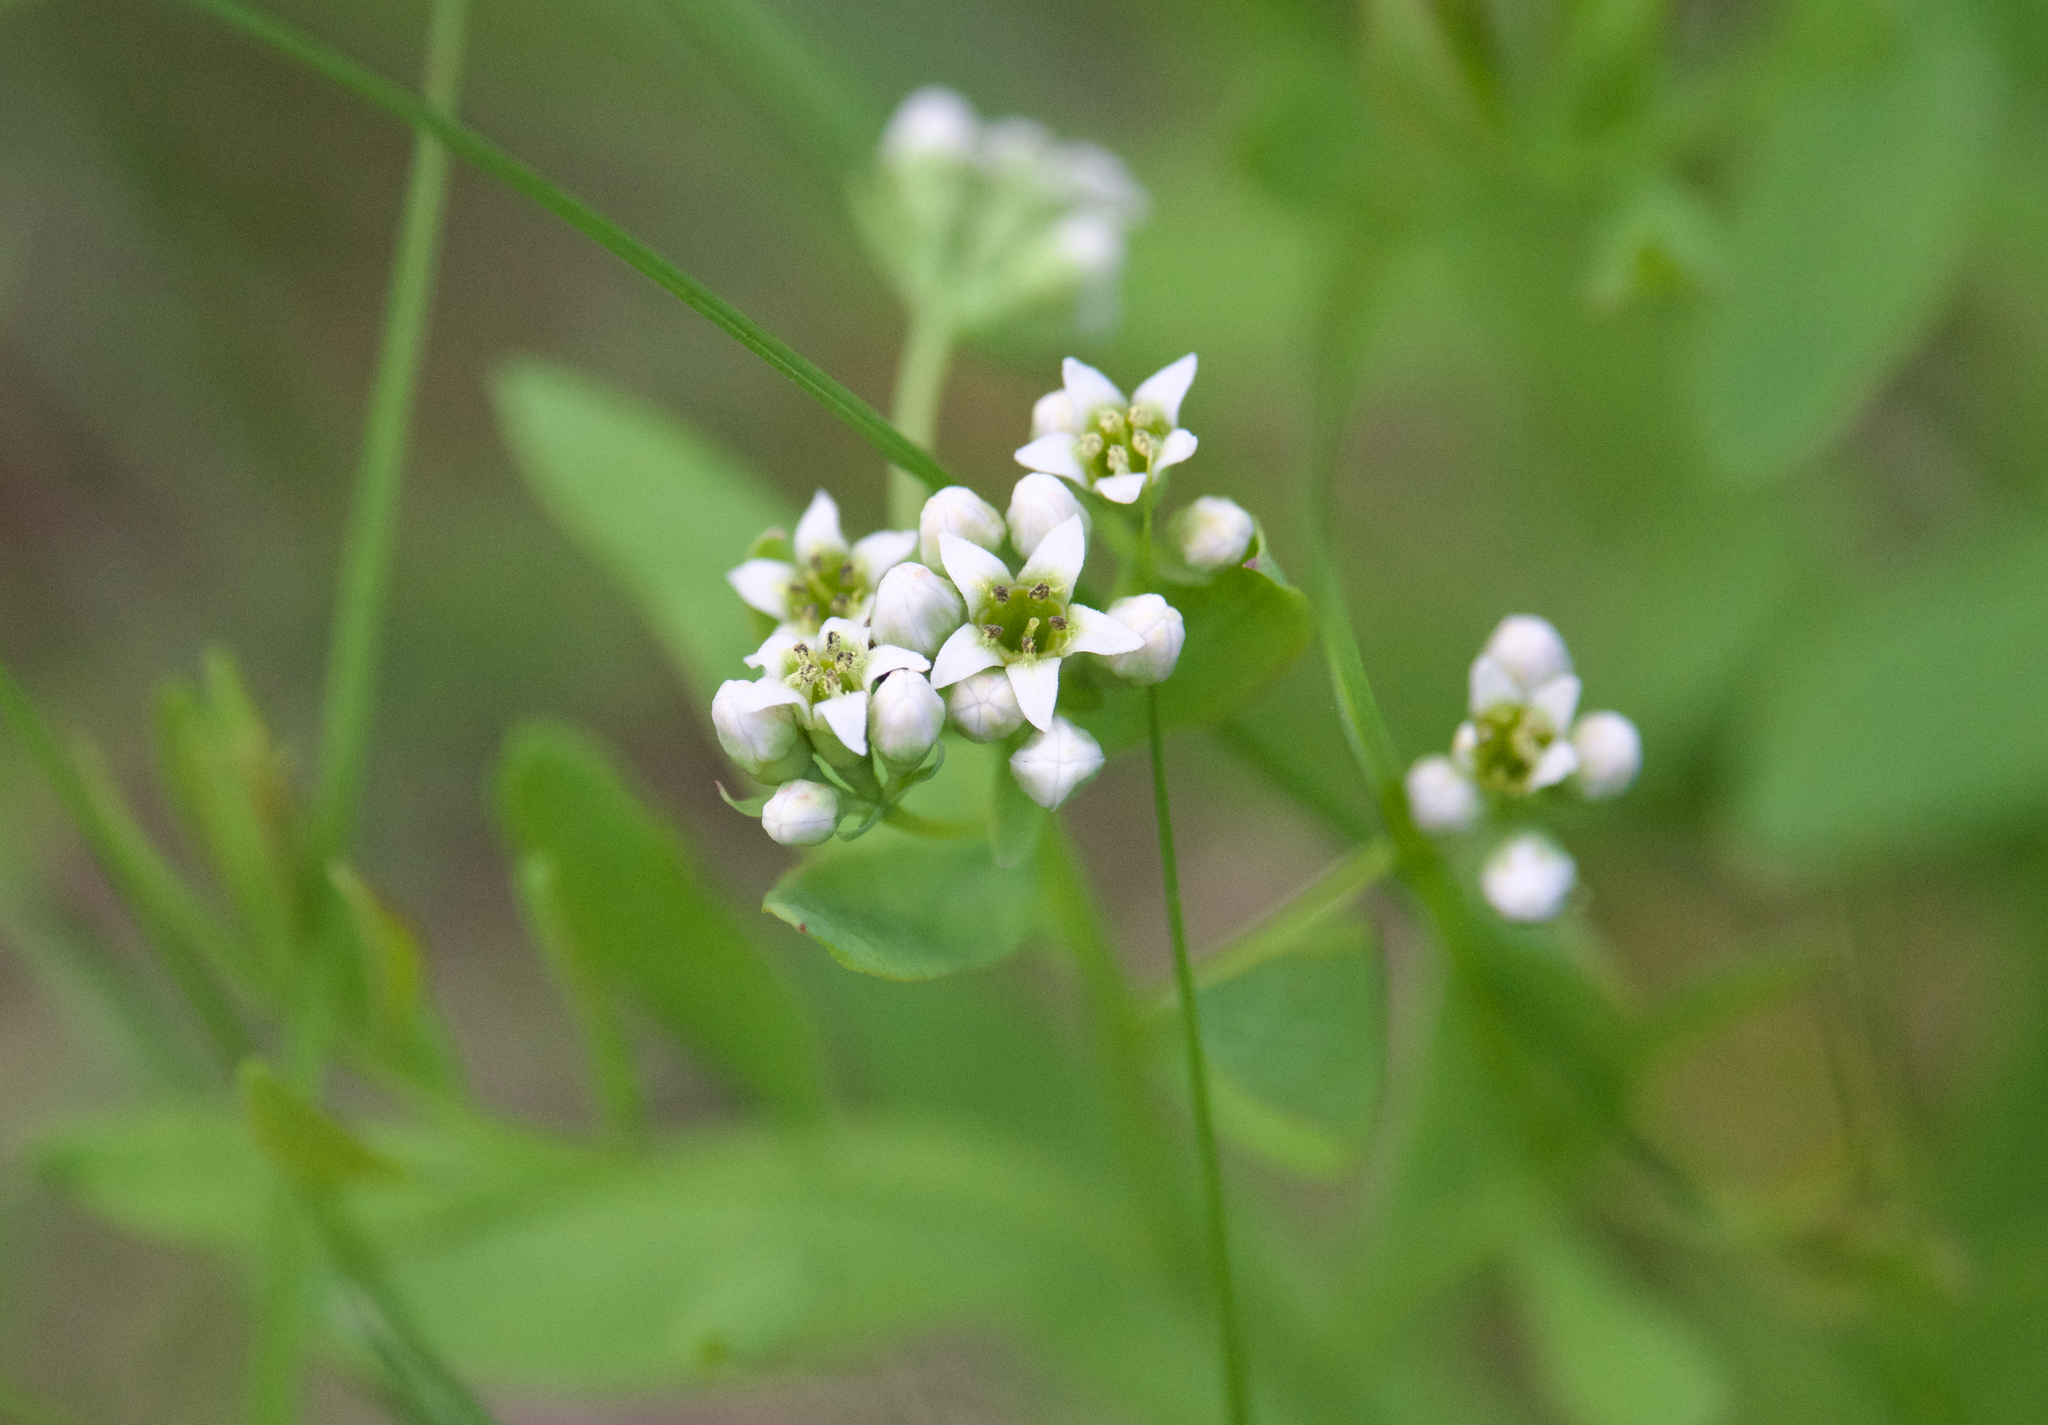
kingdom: Plantae
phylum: Tracheophyta
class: Magnoliopsida
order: Santalales
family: Comandraceae
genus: Comandra
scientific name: Comandra umbellata
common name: Bastard toadflax
